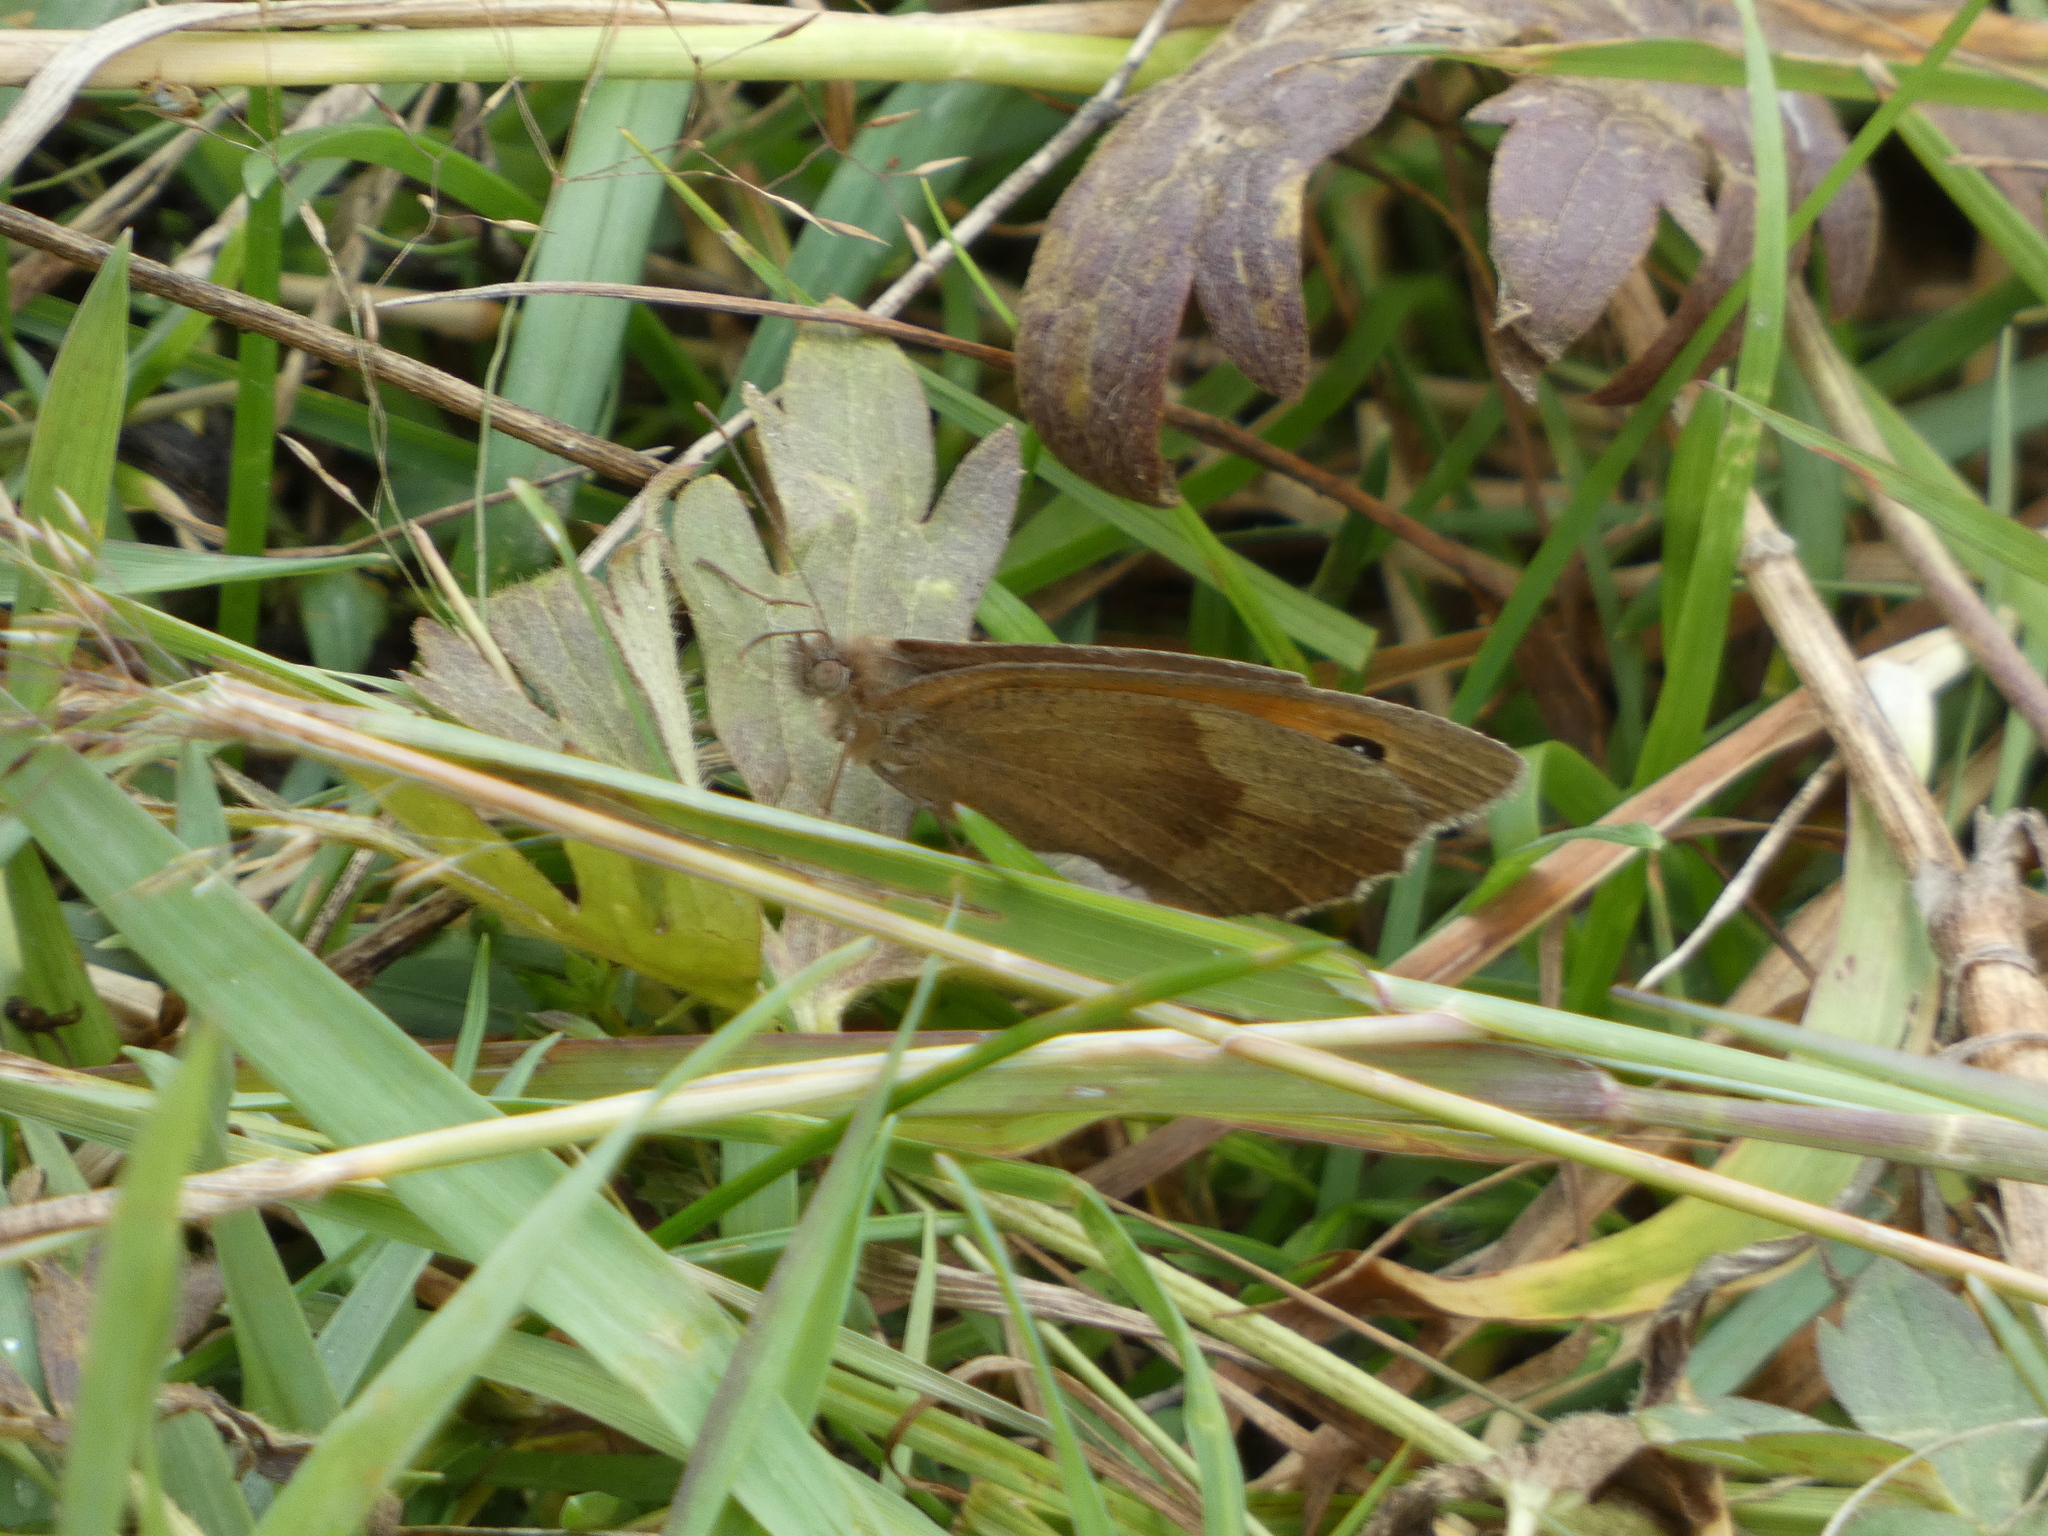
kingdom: Animalia
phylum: Arthropoda
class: Insecta
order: Lepidoptera
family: Nymphalidae
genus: Maniola
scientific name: Maniola jurtina
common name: Meadow brown
